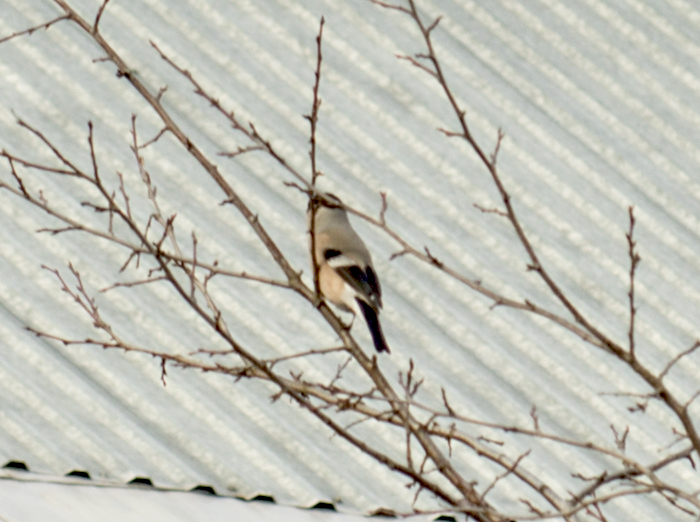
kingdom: Animalia
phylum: Chordata
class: Aves
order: Passeriformes
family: Fringillidae
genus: Pyrrhula
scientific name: Pyrrhula pyrrhula
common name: Eurasian bullfinch
